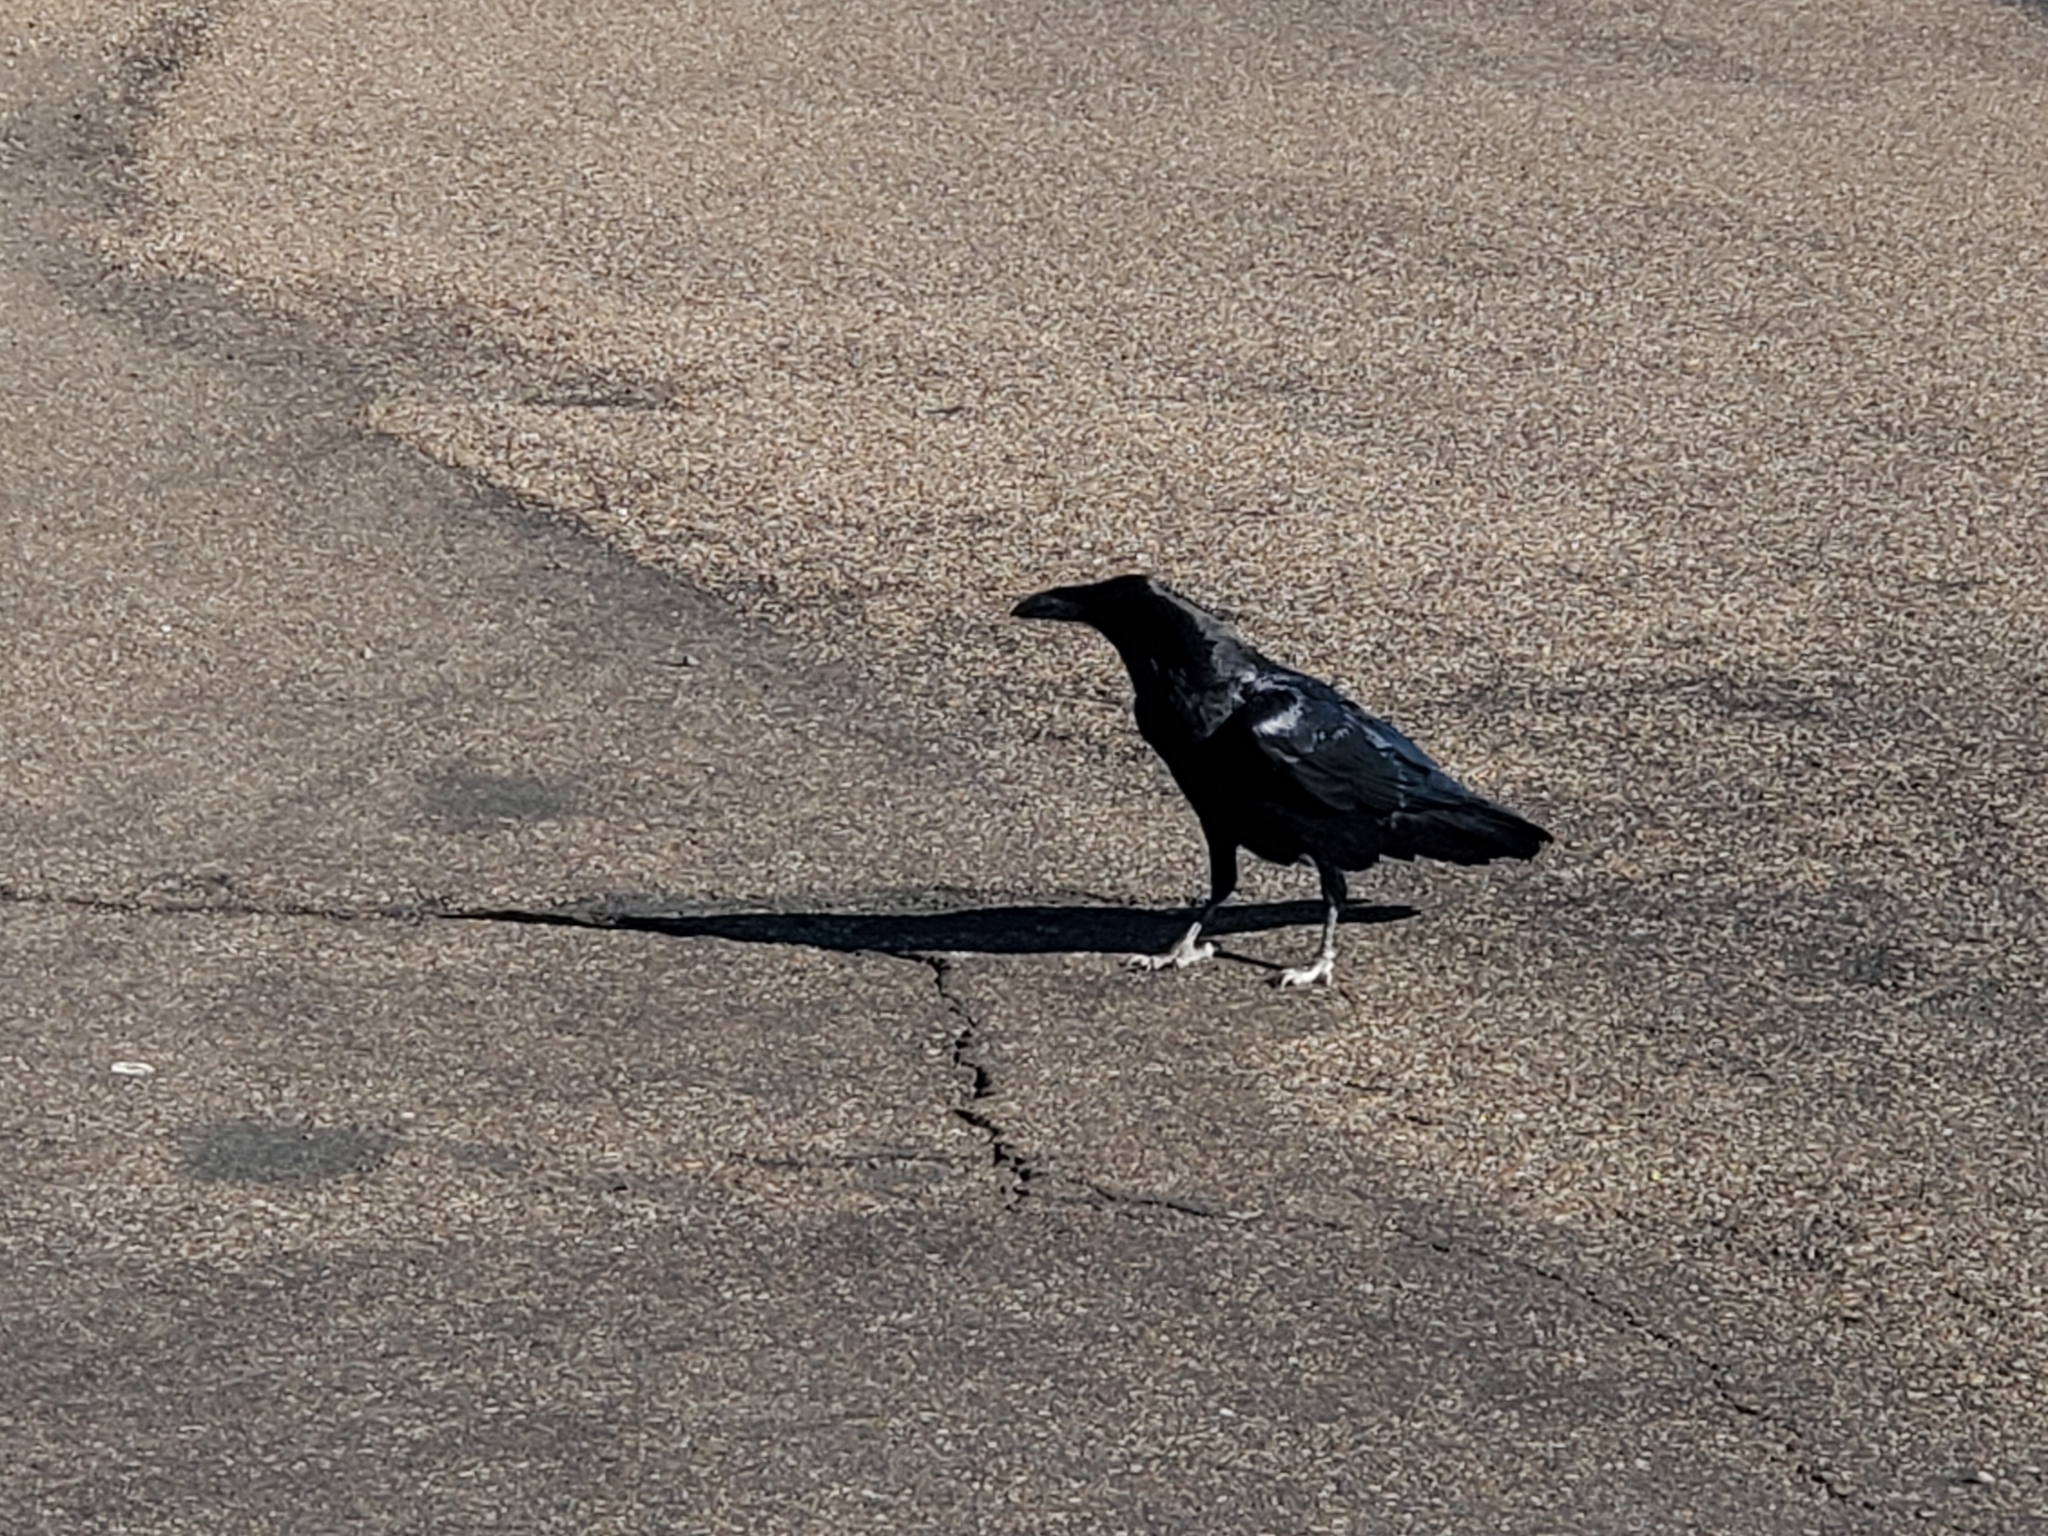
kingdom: Animalia
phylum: Chordata
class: Aves
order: Passeriformes
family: Corvidae
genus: Corvus
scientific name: Corvus corax
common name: Common raven
